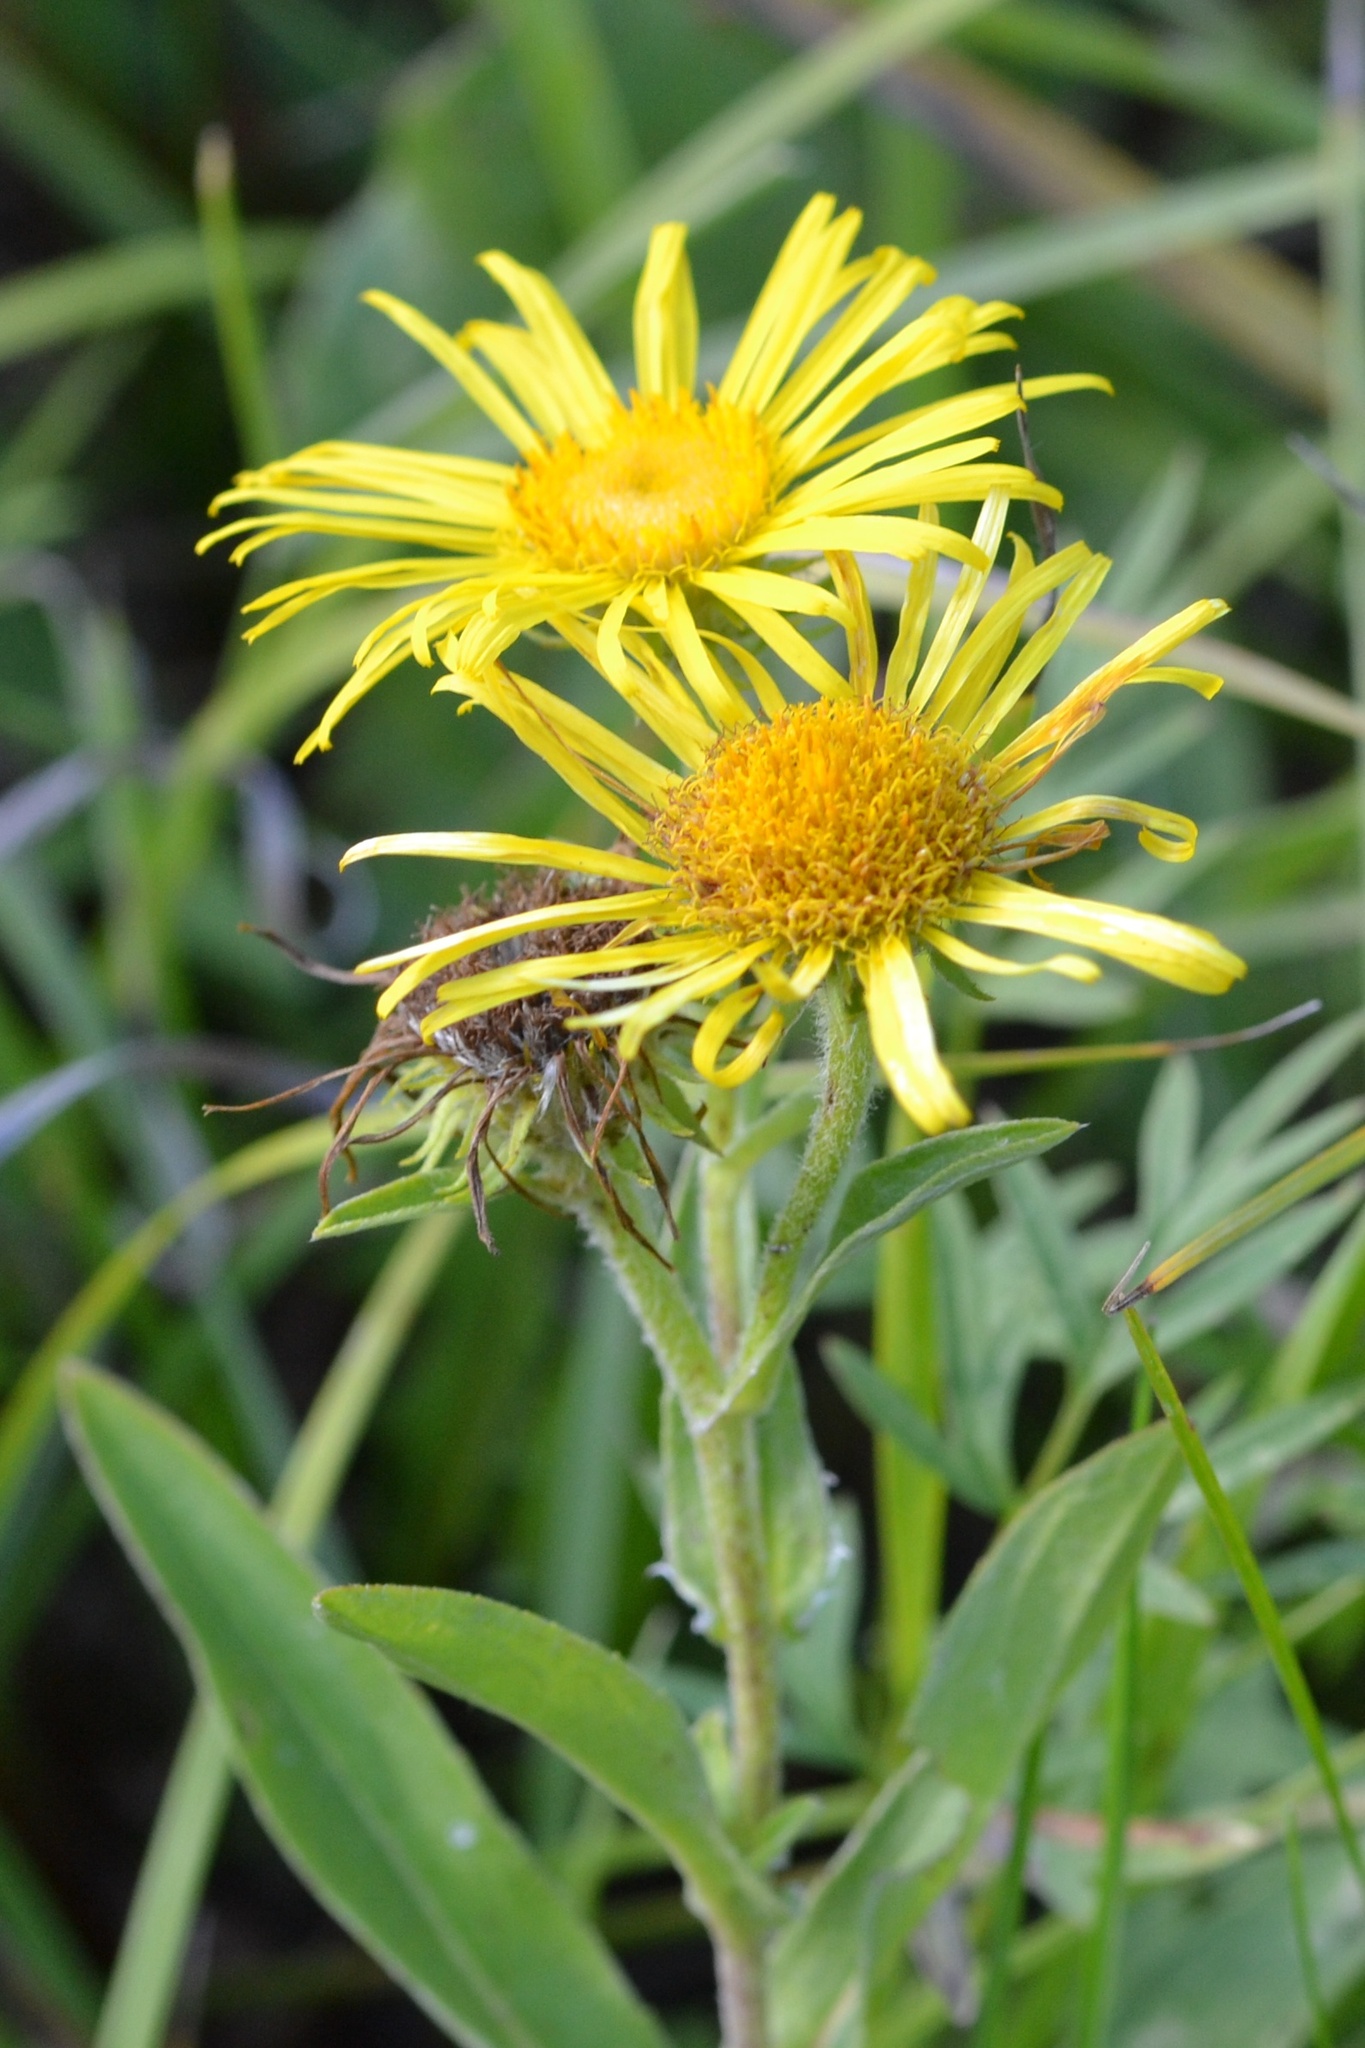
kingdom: Plantae
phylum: Tracheophyta
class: Magnoliopsida
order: Asterales
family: Asteraceae
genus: Pentanema
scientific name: Pentanema britannicum
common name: British elecampane
